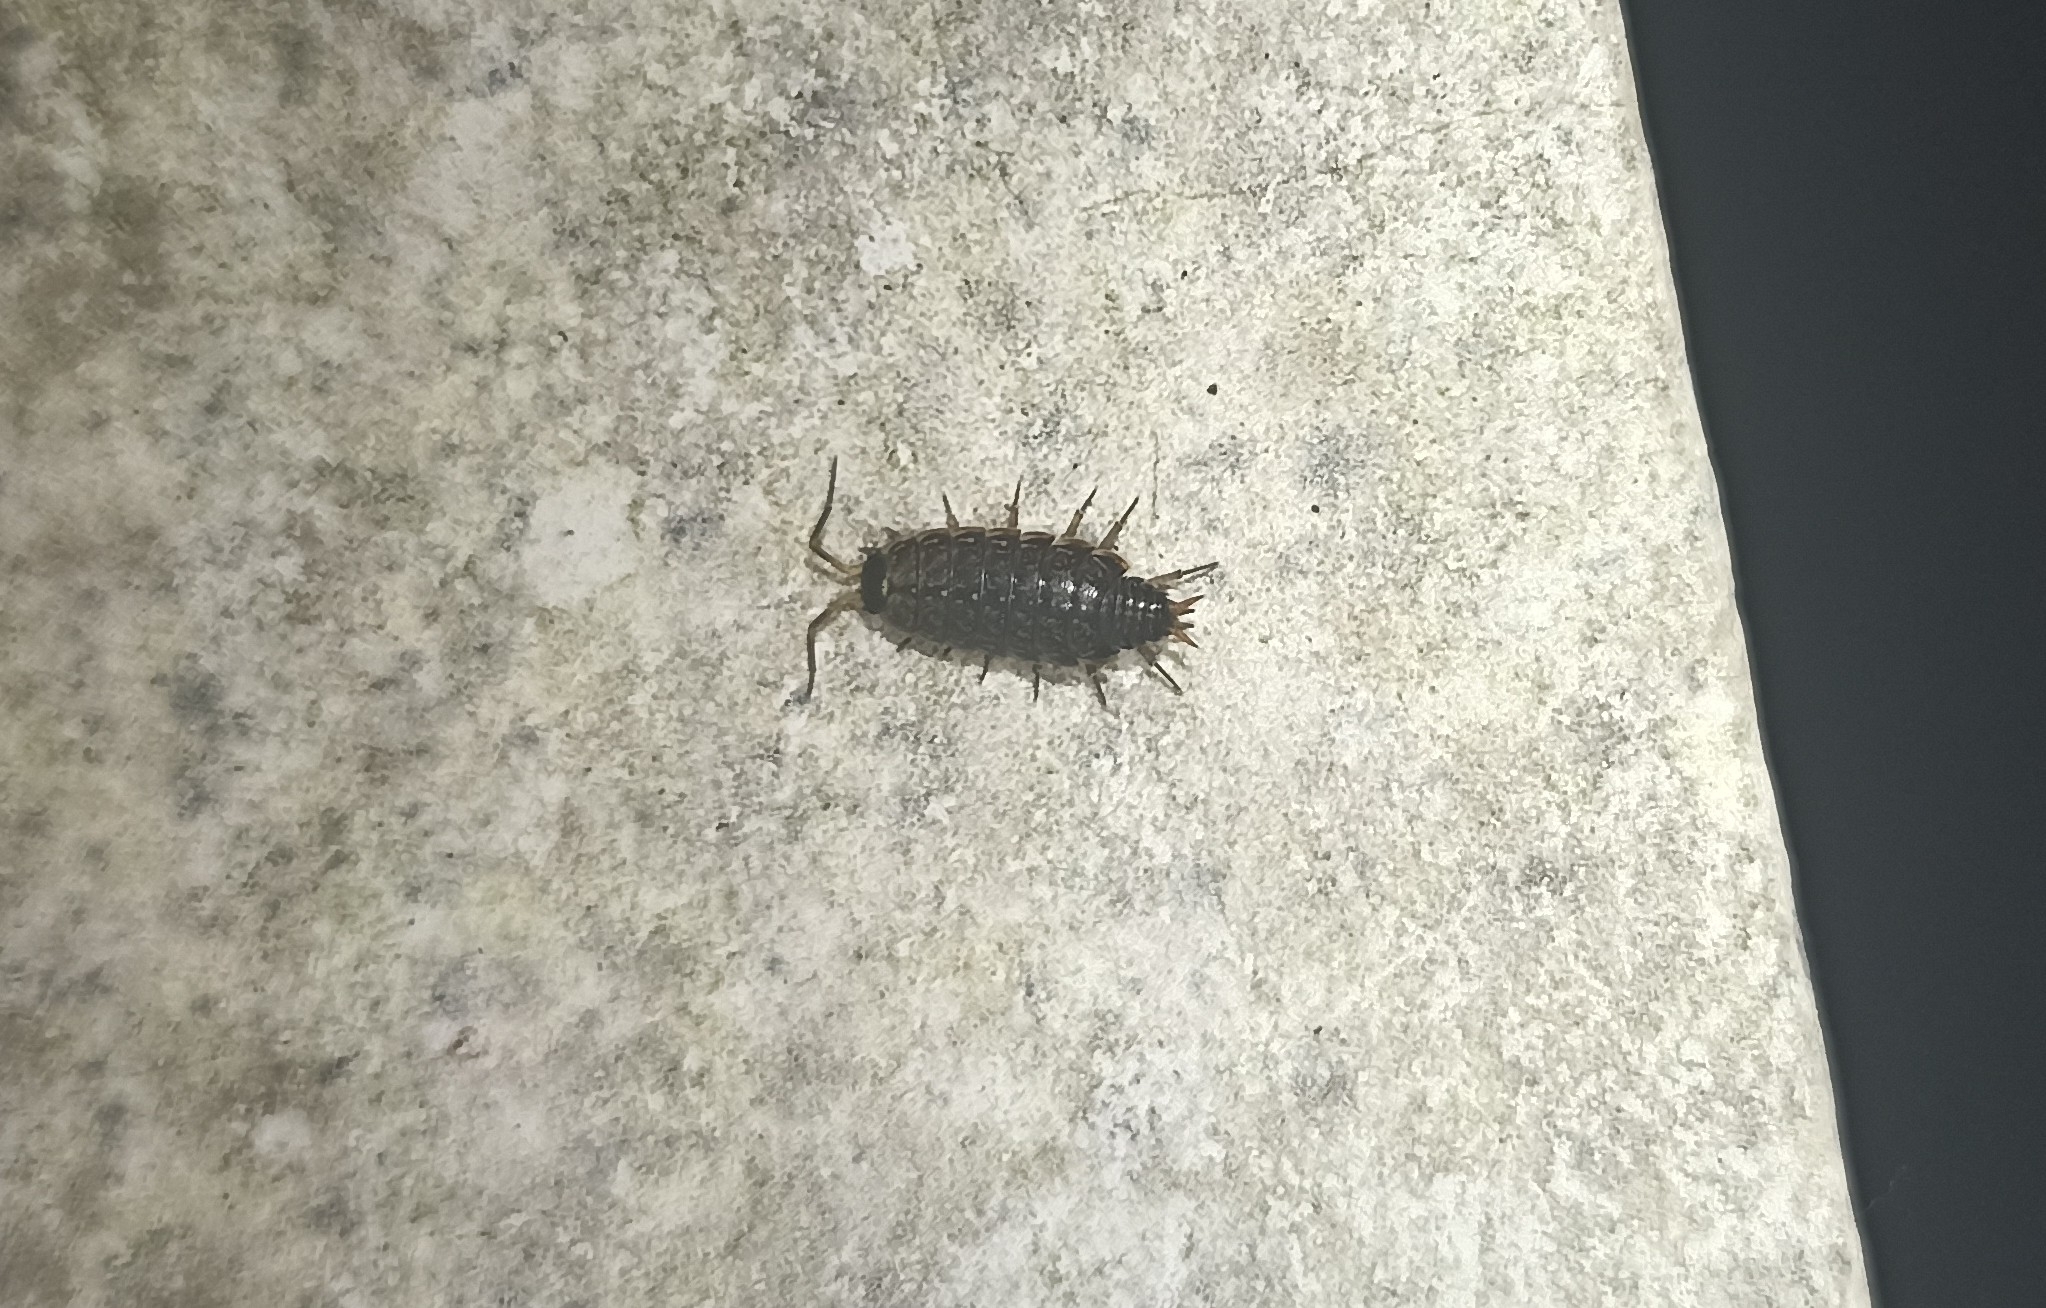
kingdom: Animalia
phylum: Arthropoda
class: Malacostraca
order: Isopoda
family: Philosciidae
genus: Philoscia
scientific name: Philoscia muscorum
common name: Common striped woodlouse
